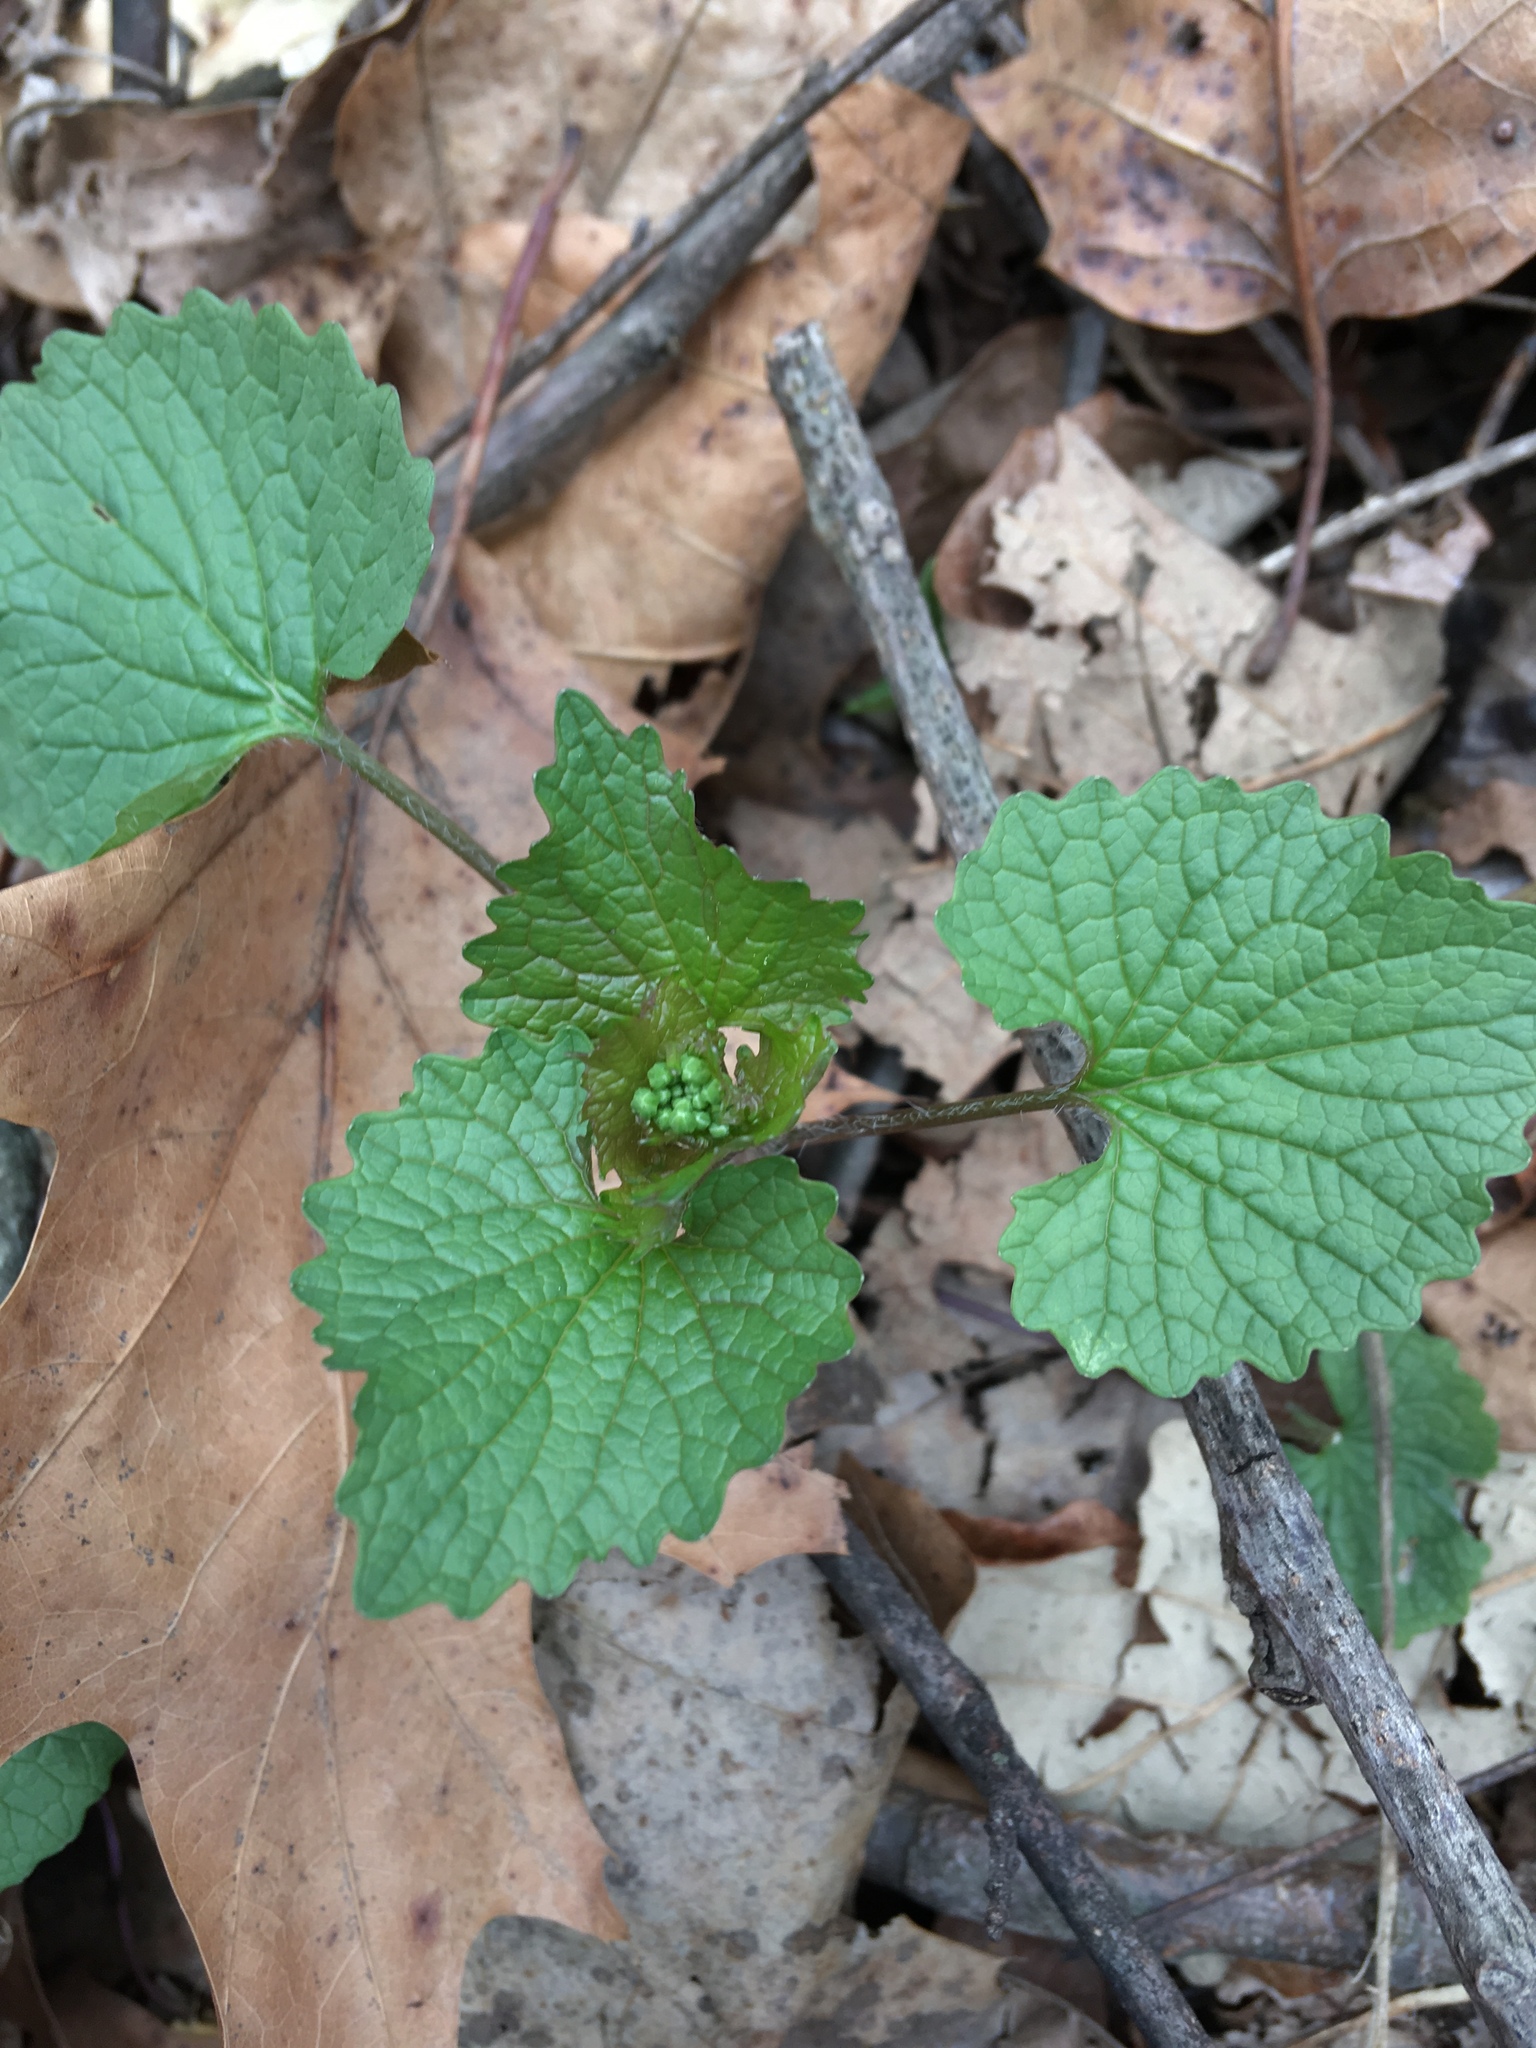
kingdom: Plantae
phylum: Tracheophyta
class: Magnoliopsida
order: Brassicales
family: Brassicaceae
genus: Alliaria
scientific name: Alliaria petiolata
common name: Garlic mustard
